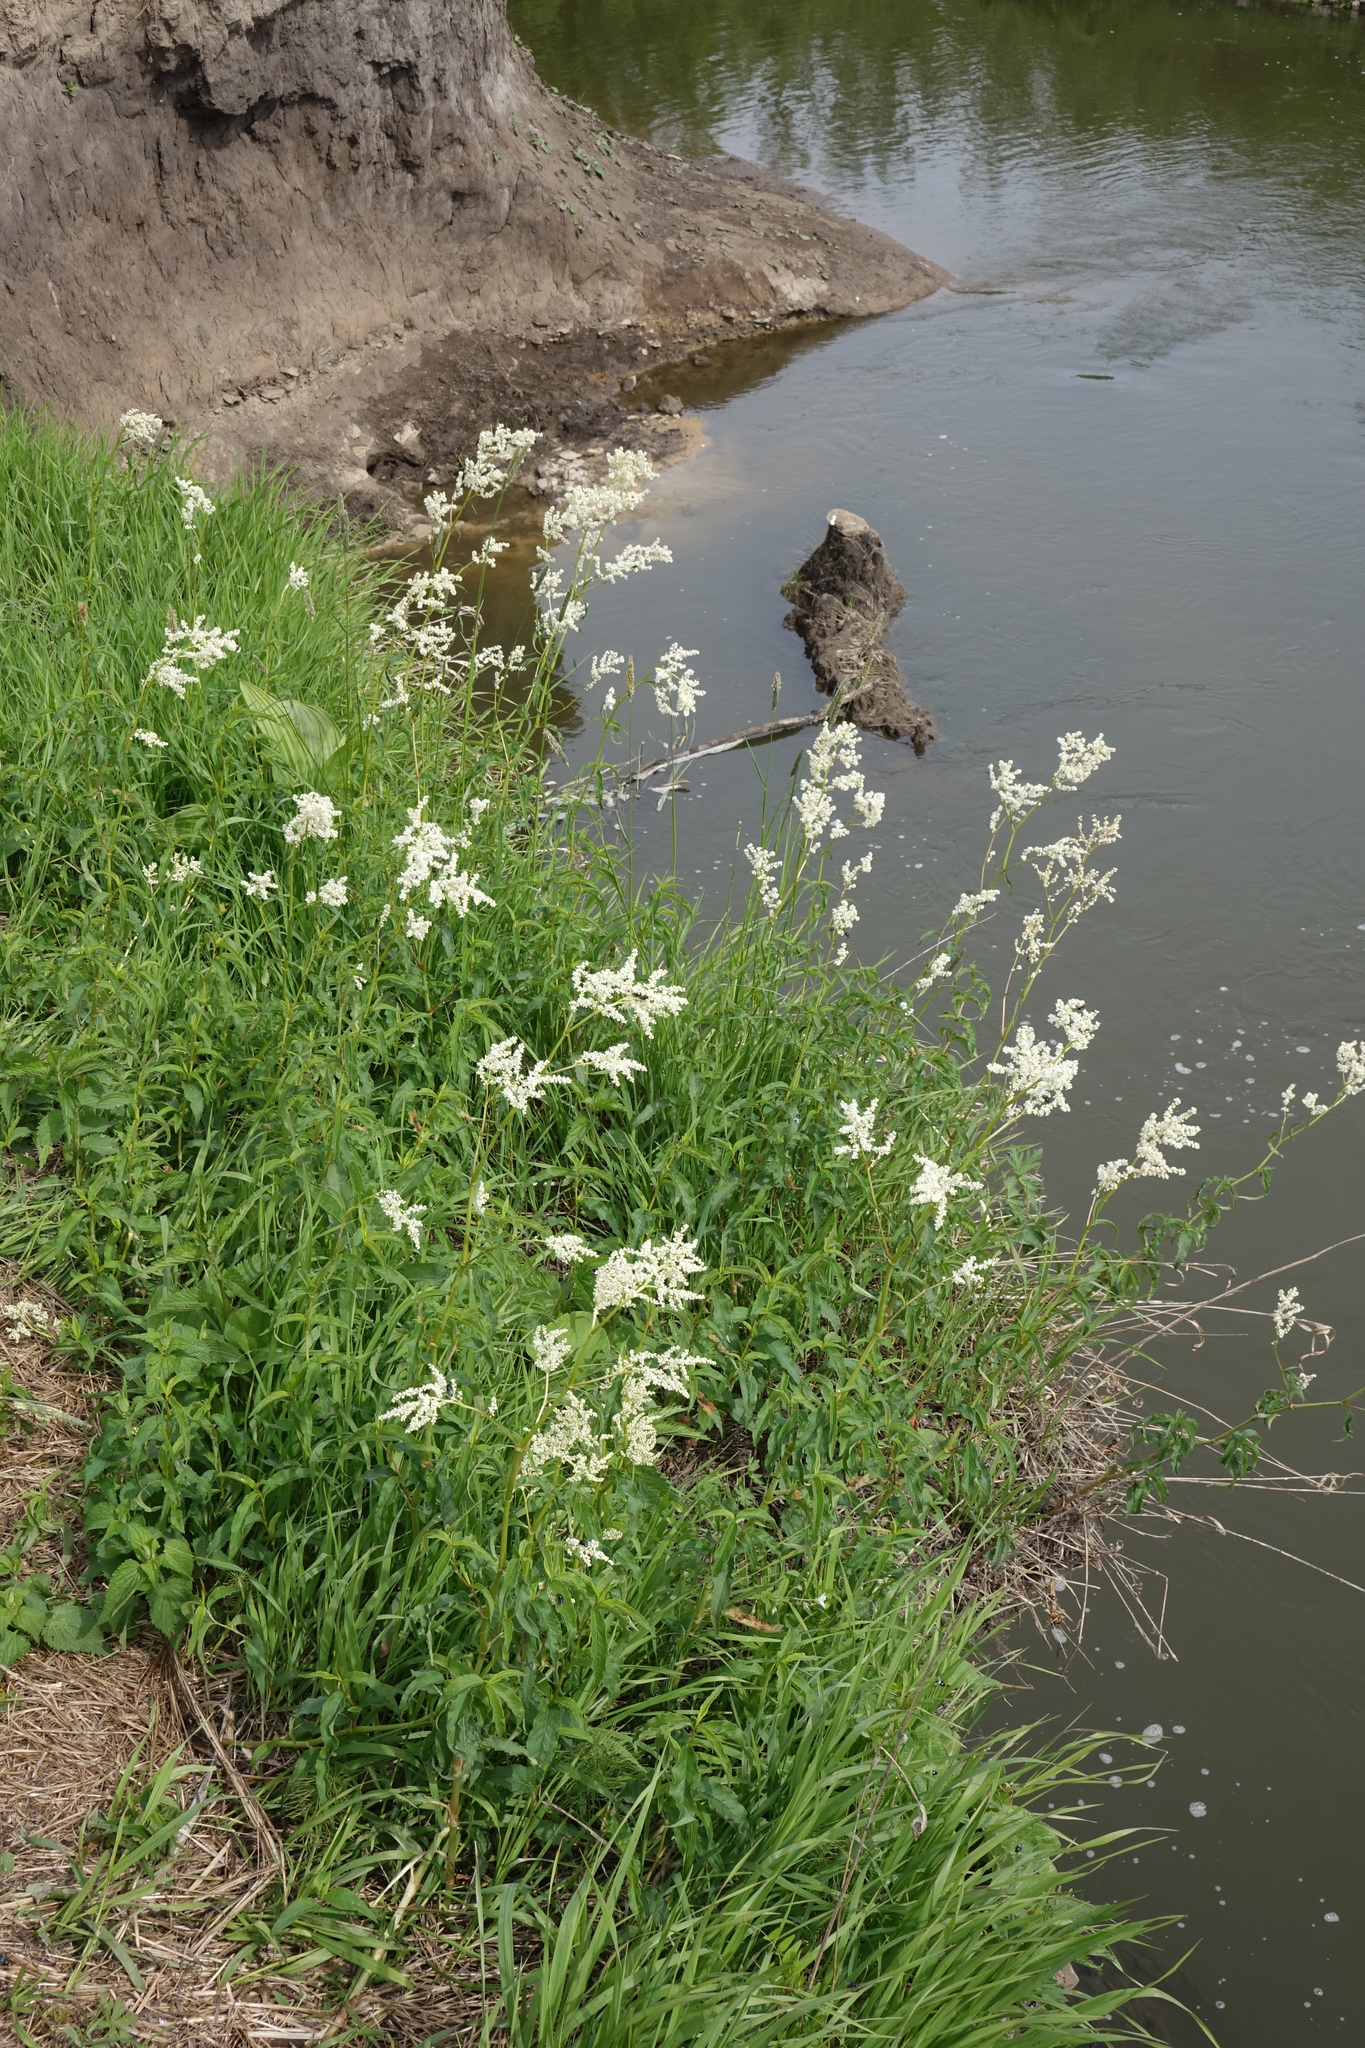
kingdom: Plantae
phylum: Tracheophyta
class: Magnoliopsida
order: Caryophyllales
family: Polygonaceae
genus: Koenigia
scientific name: Koenigia alpina
